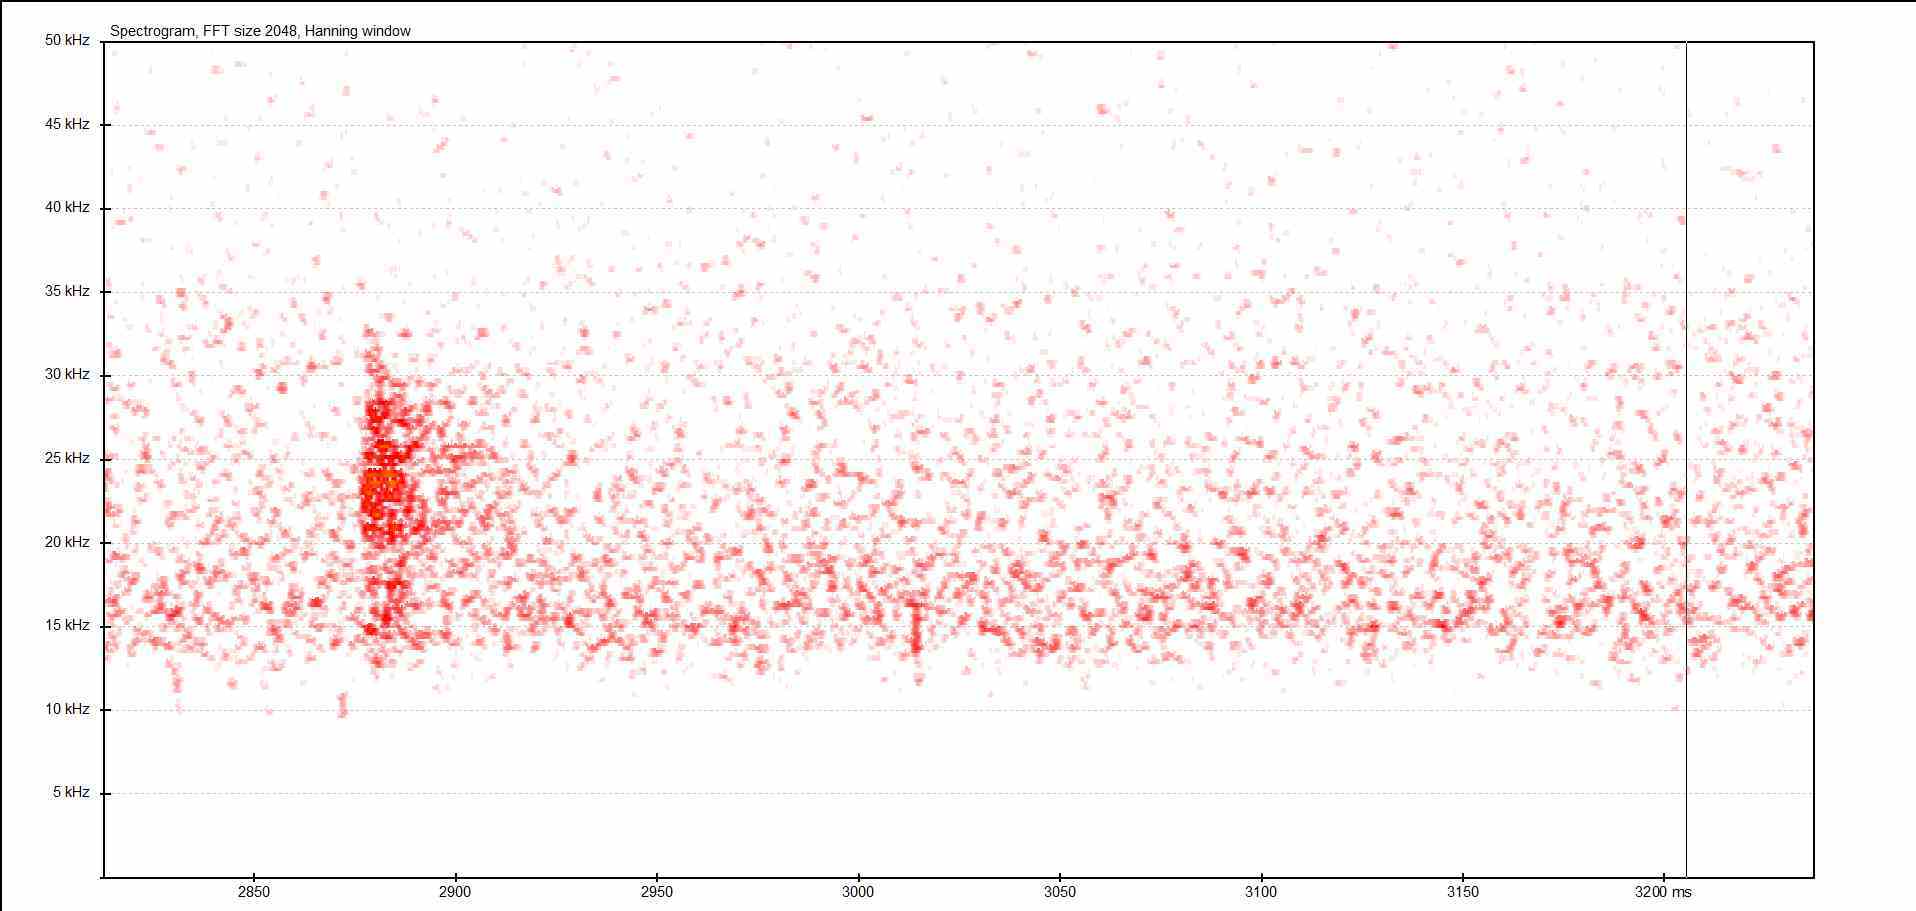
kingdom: Animalia
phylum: Arthropoda
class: Insecta
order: Orthoptera
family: Tettigoniidae
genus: Barbitistes
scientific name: Barbitistes serricauda
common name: Saw-tailed bush-cricket
